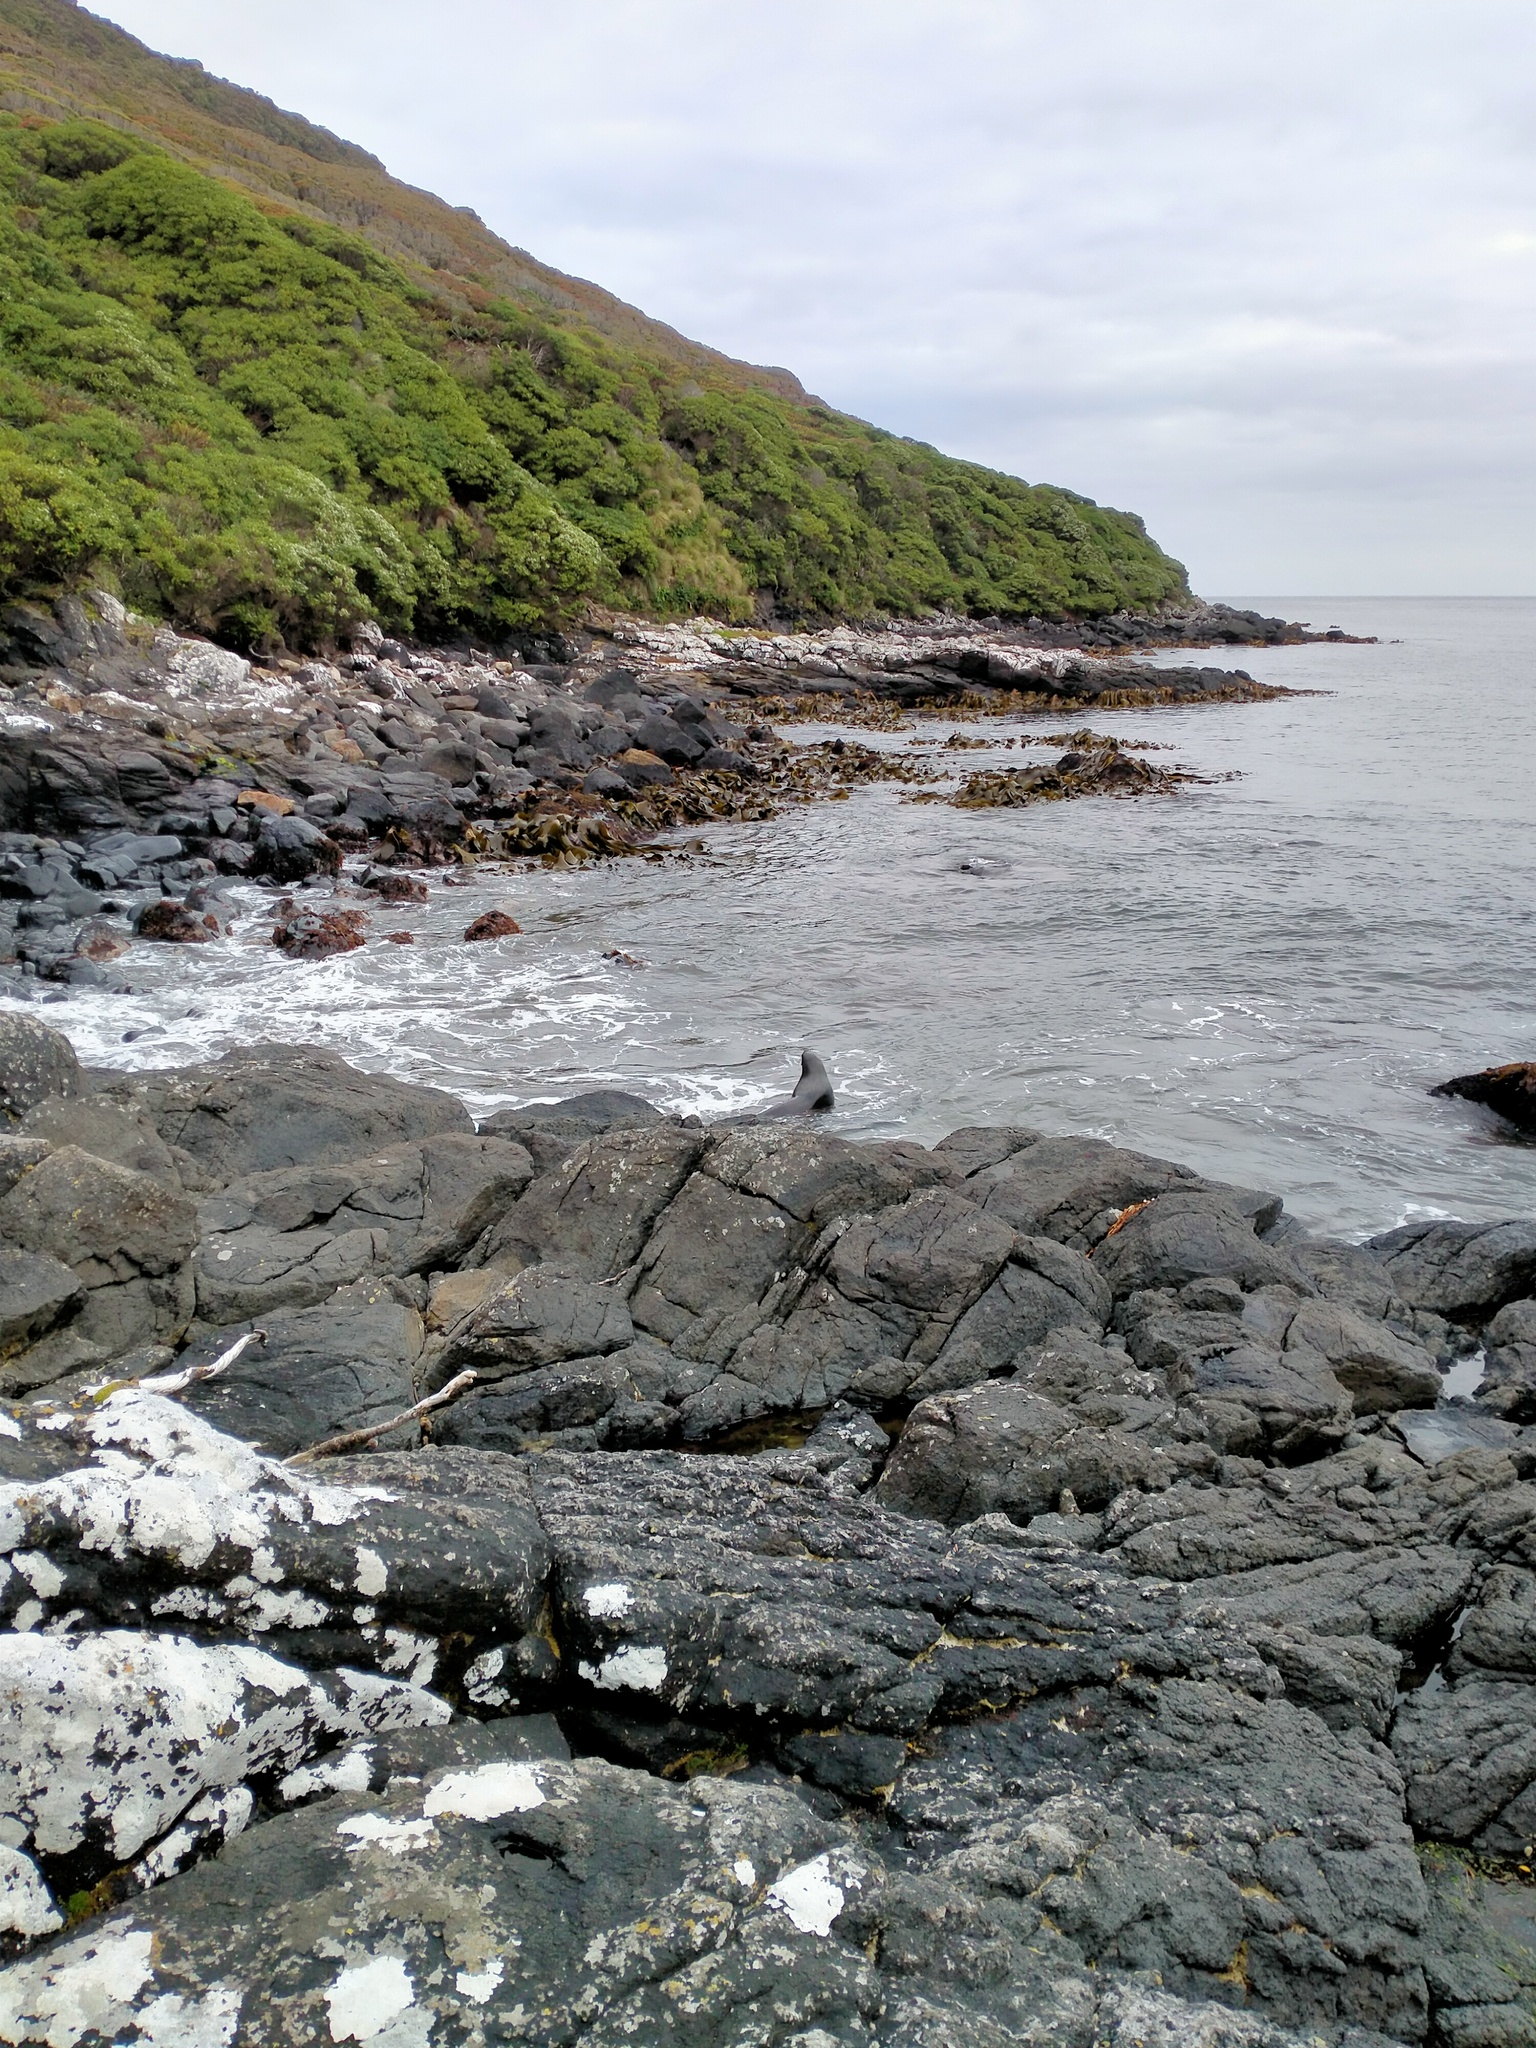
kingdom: Animalia
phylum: Chordata
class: Mammalia
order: Carnivora
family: Otariidae
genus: Phocarctos
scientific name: Phocarctos hookeri
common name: New zealand sea lion
